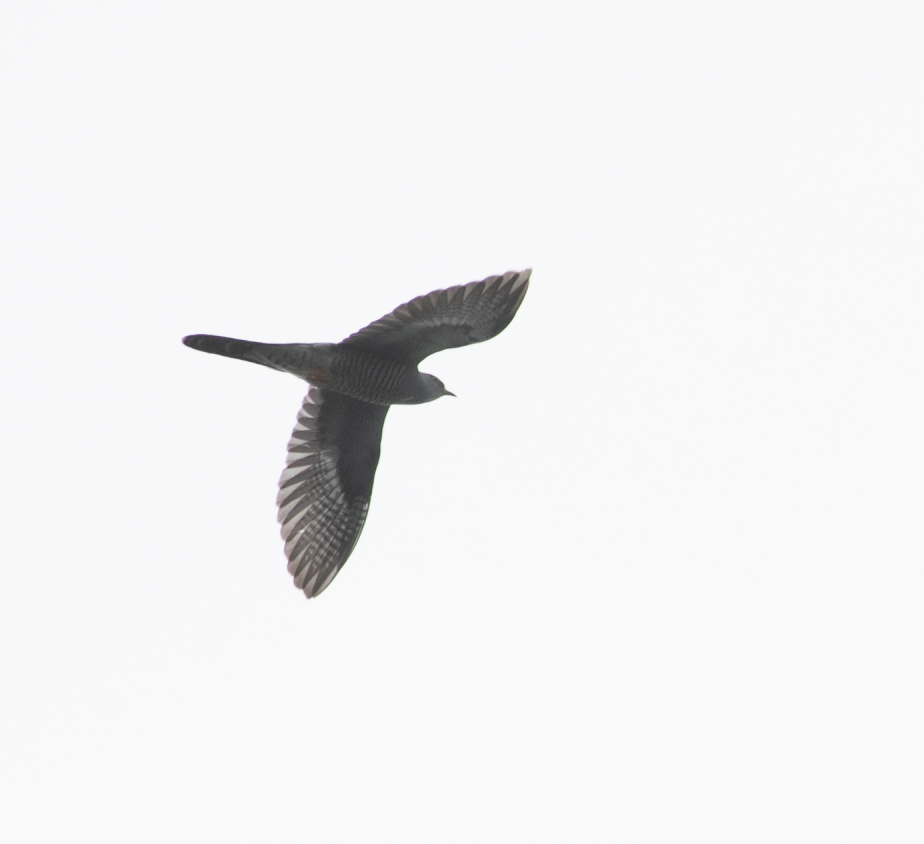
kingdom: Animalia
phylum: Chordata
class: Aves
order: Cuculiformes
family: Cuculidae
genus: Cuculus
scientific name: Cuculus canorus
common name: Common cuckoo
